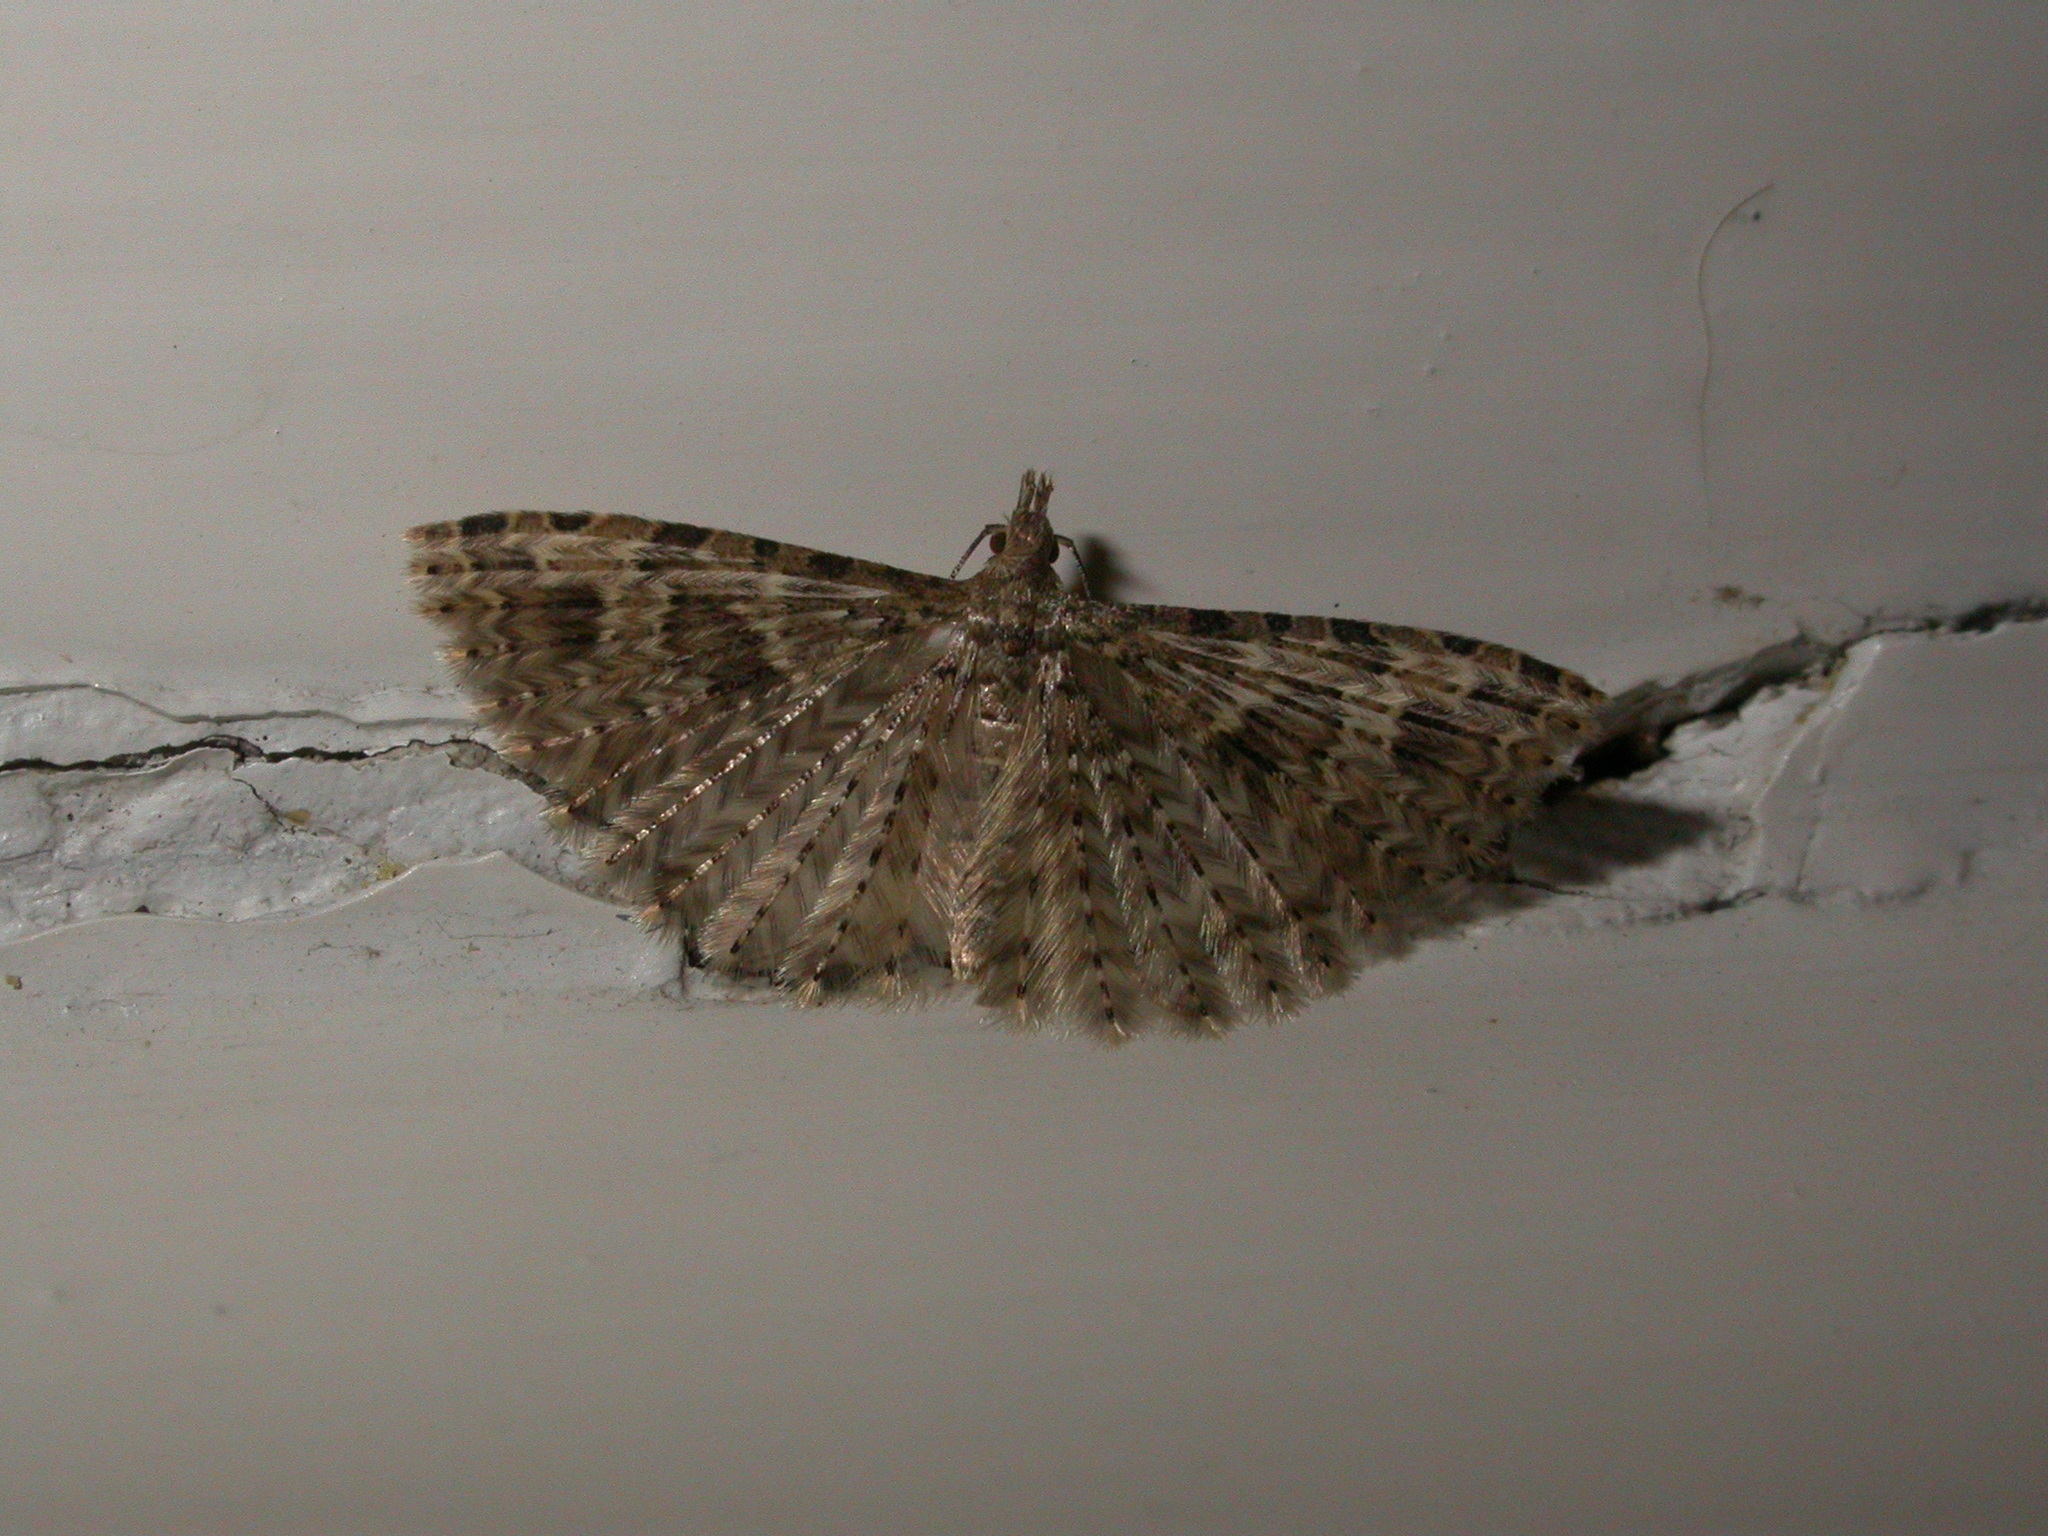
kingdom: Animalia
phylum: Arthropoda
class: Insecta
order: Lepidoptera
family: Alucitidae
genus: Alucita
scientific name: Alucita hexadactyla
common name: Twenty-plume moth
